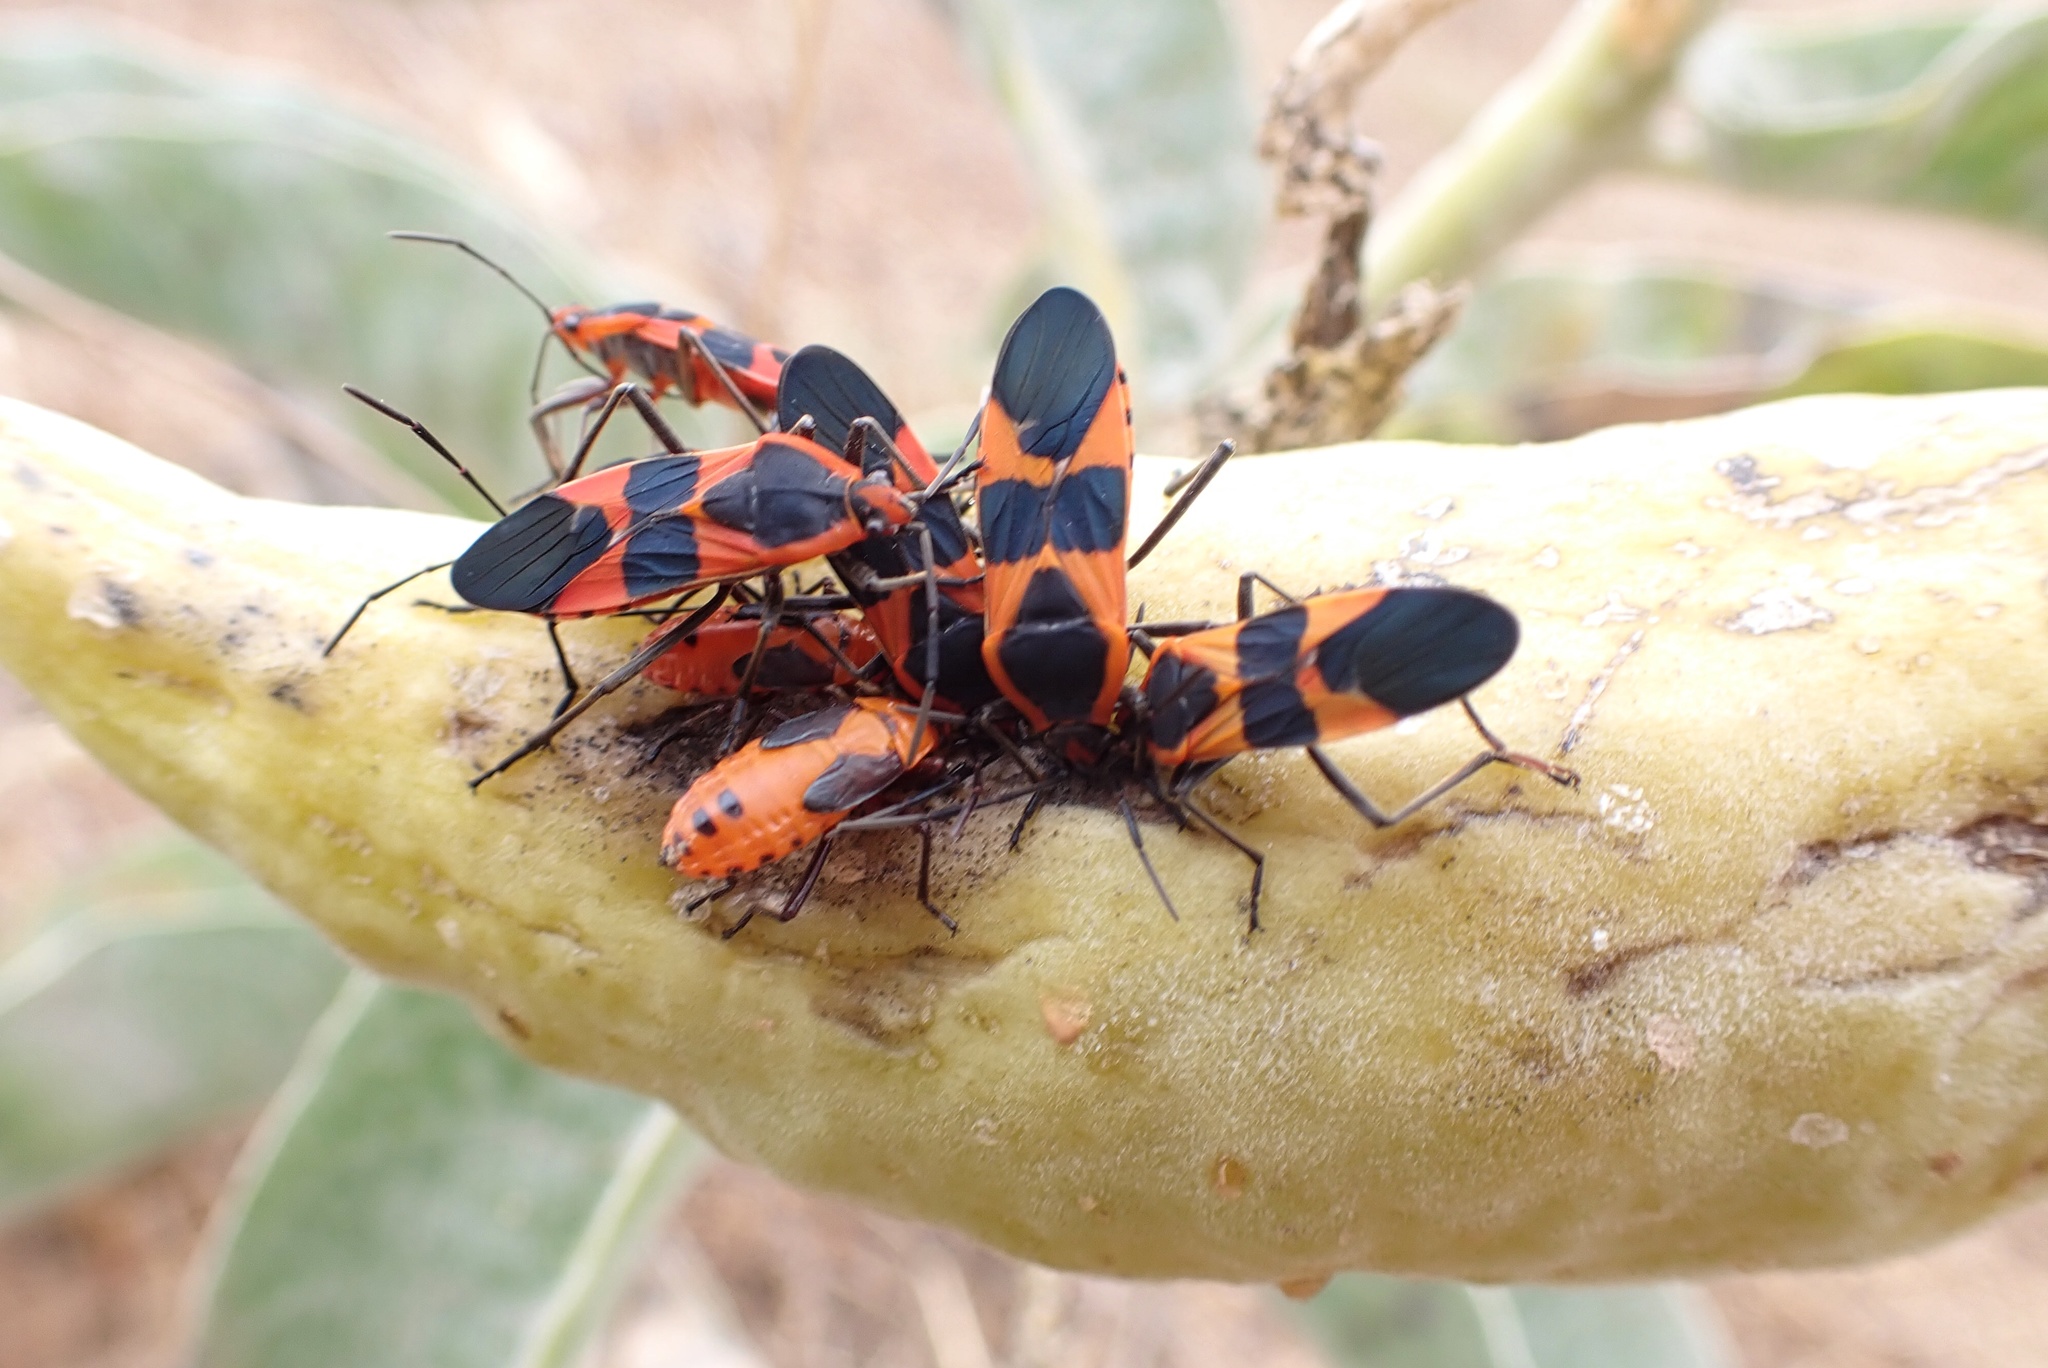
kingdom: Animalia
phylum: Arthropoda
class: Insecta
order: Hemiptera
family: Lygaeidae
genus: Oncopeltus
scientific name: Oncopeltus fasciatus
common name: Large milkweed bug
